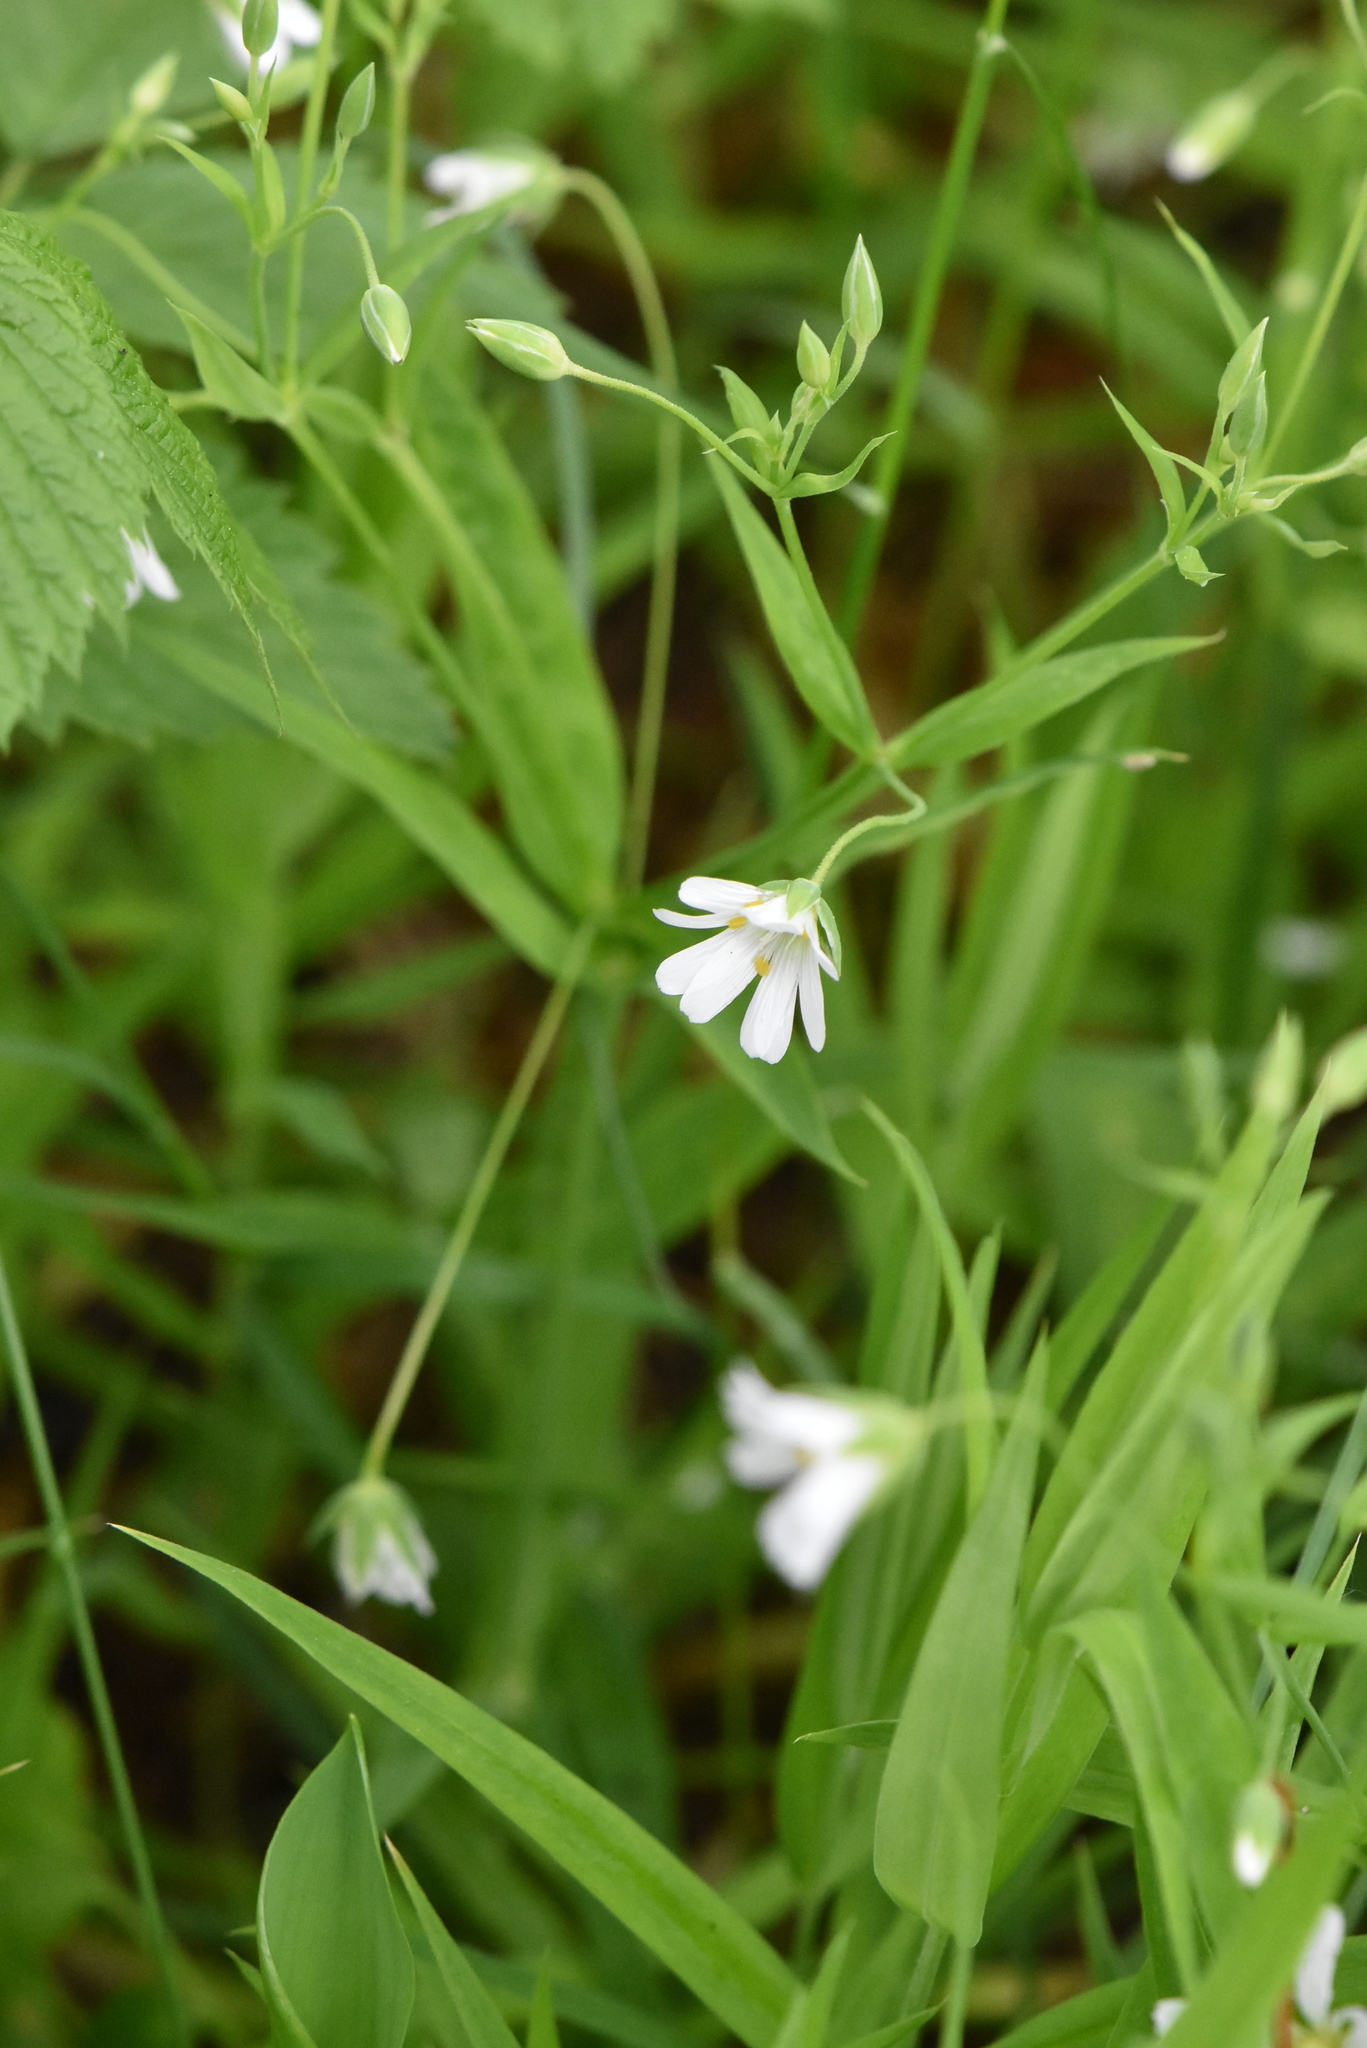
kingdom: Plantae
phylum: Tracheophyta
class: Magnoliopsida
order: Caryophyllales
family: Caryophyllaceae
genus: Rabelera
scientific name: Rabelera holostea
